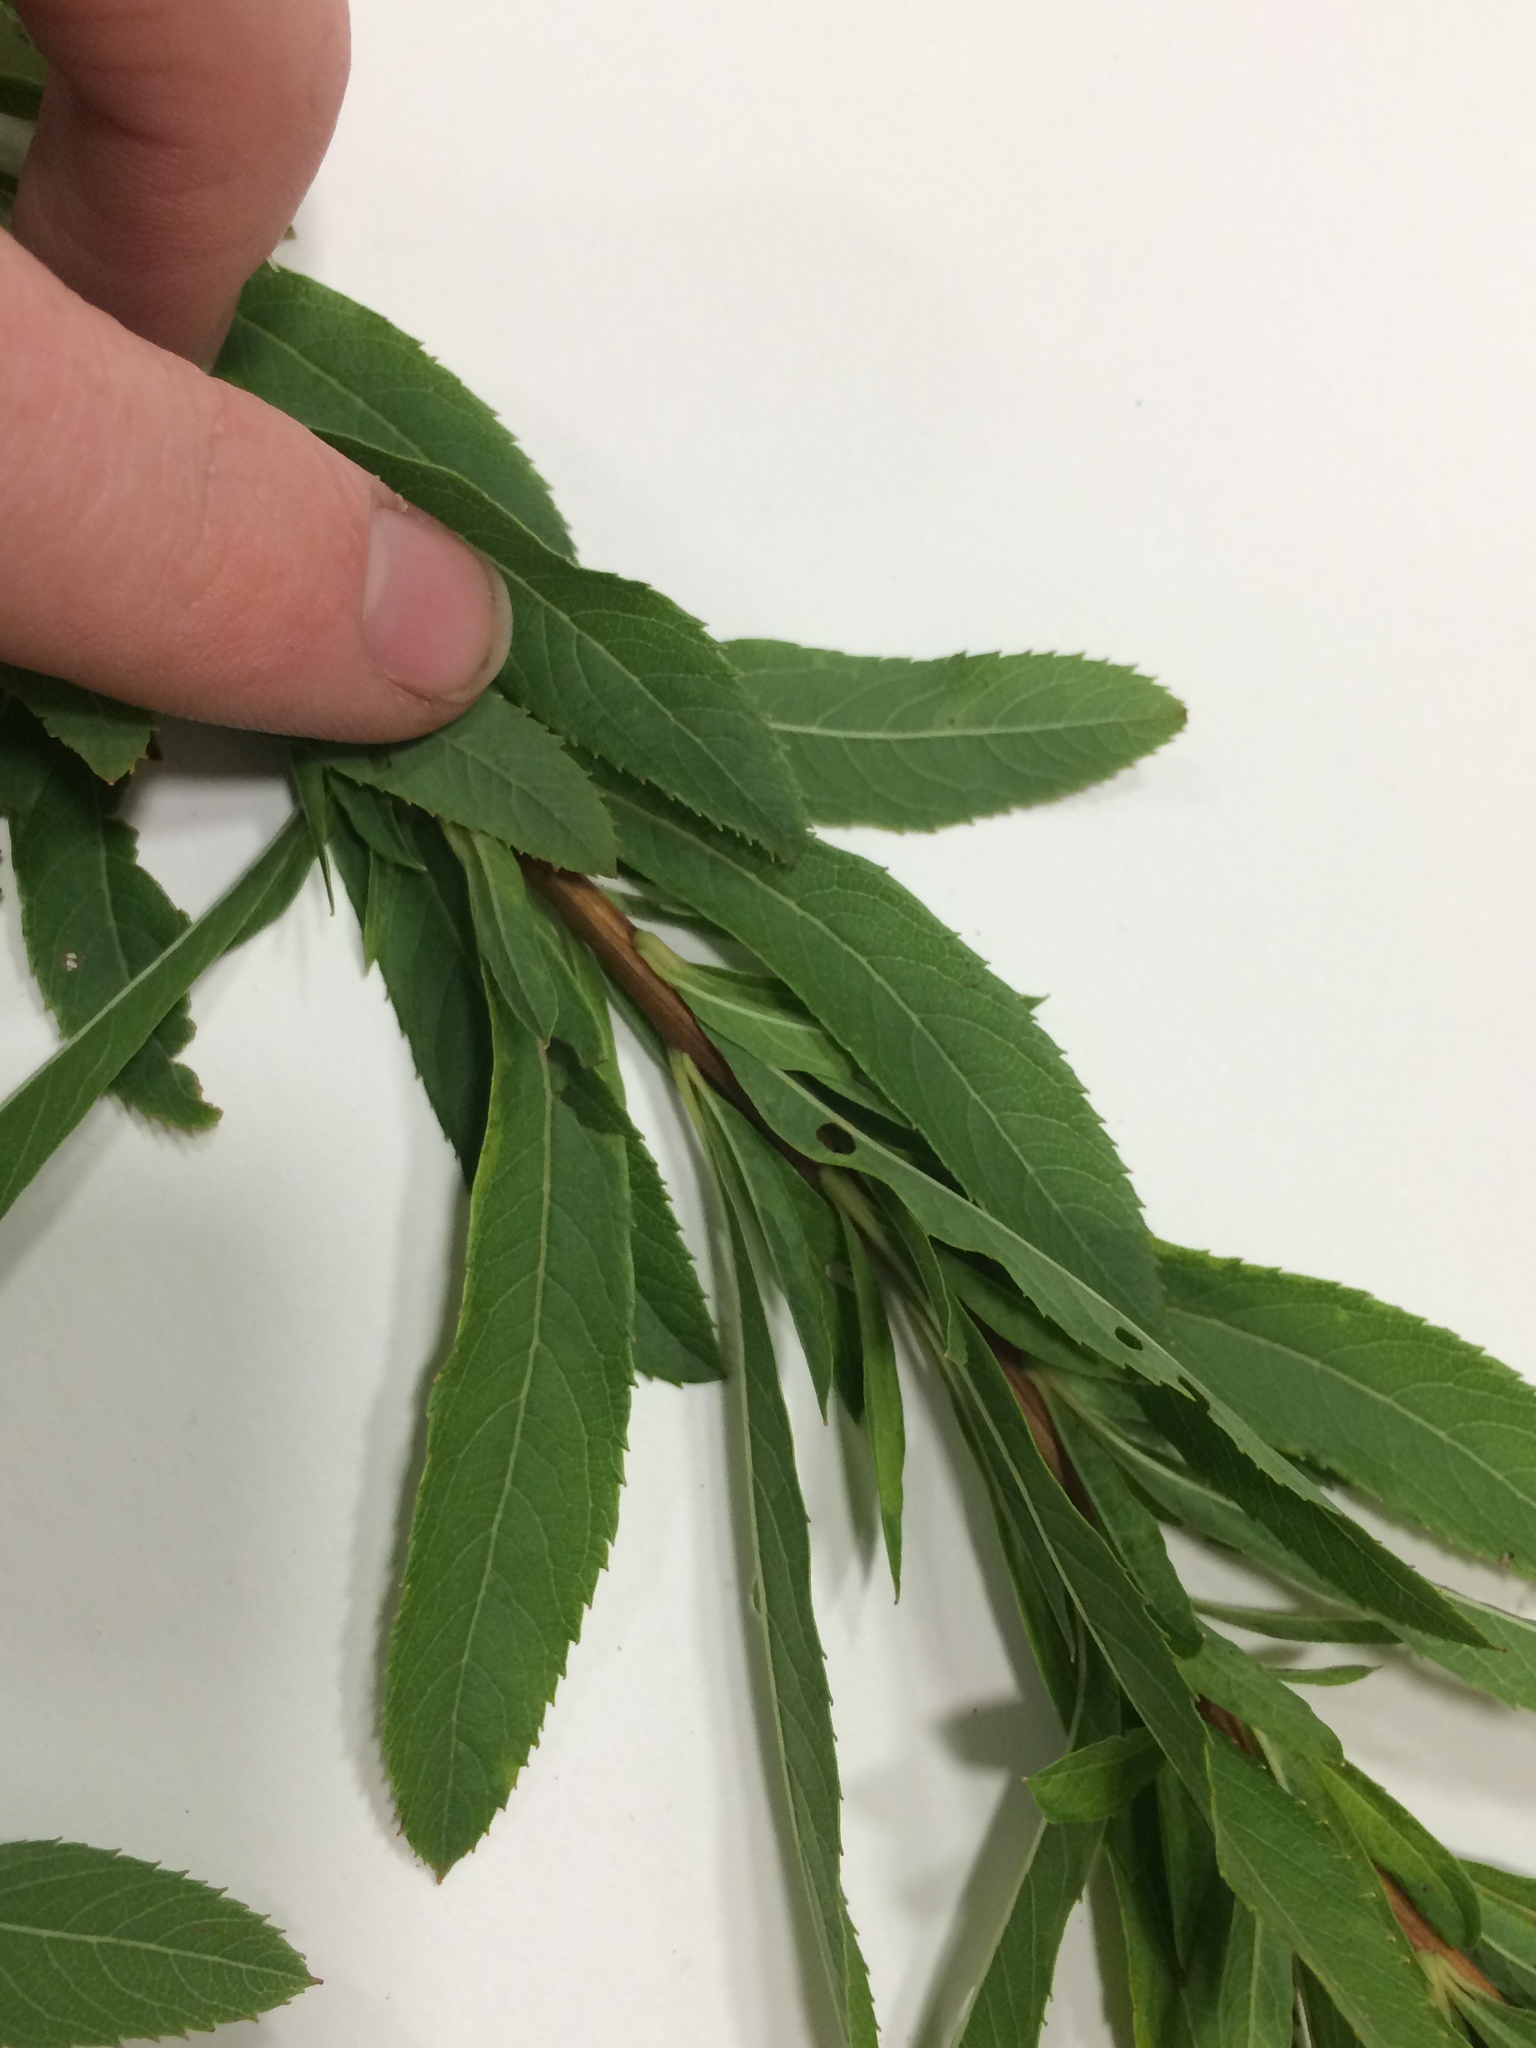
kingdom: Plantae
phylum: Tracheophyta
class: Magnoliopsida
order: Rosales
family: Rosaceae
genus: Spiraea
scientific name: Spiraea alba
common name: Pale bridewort
